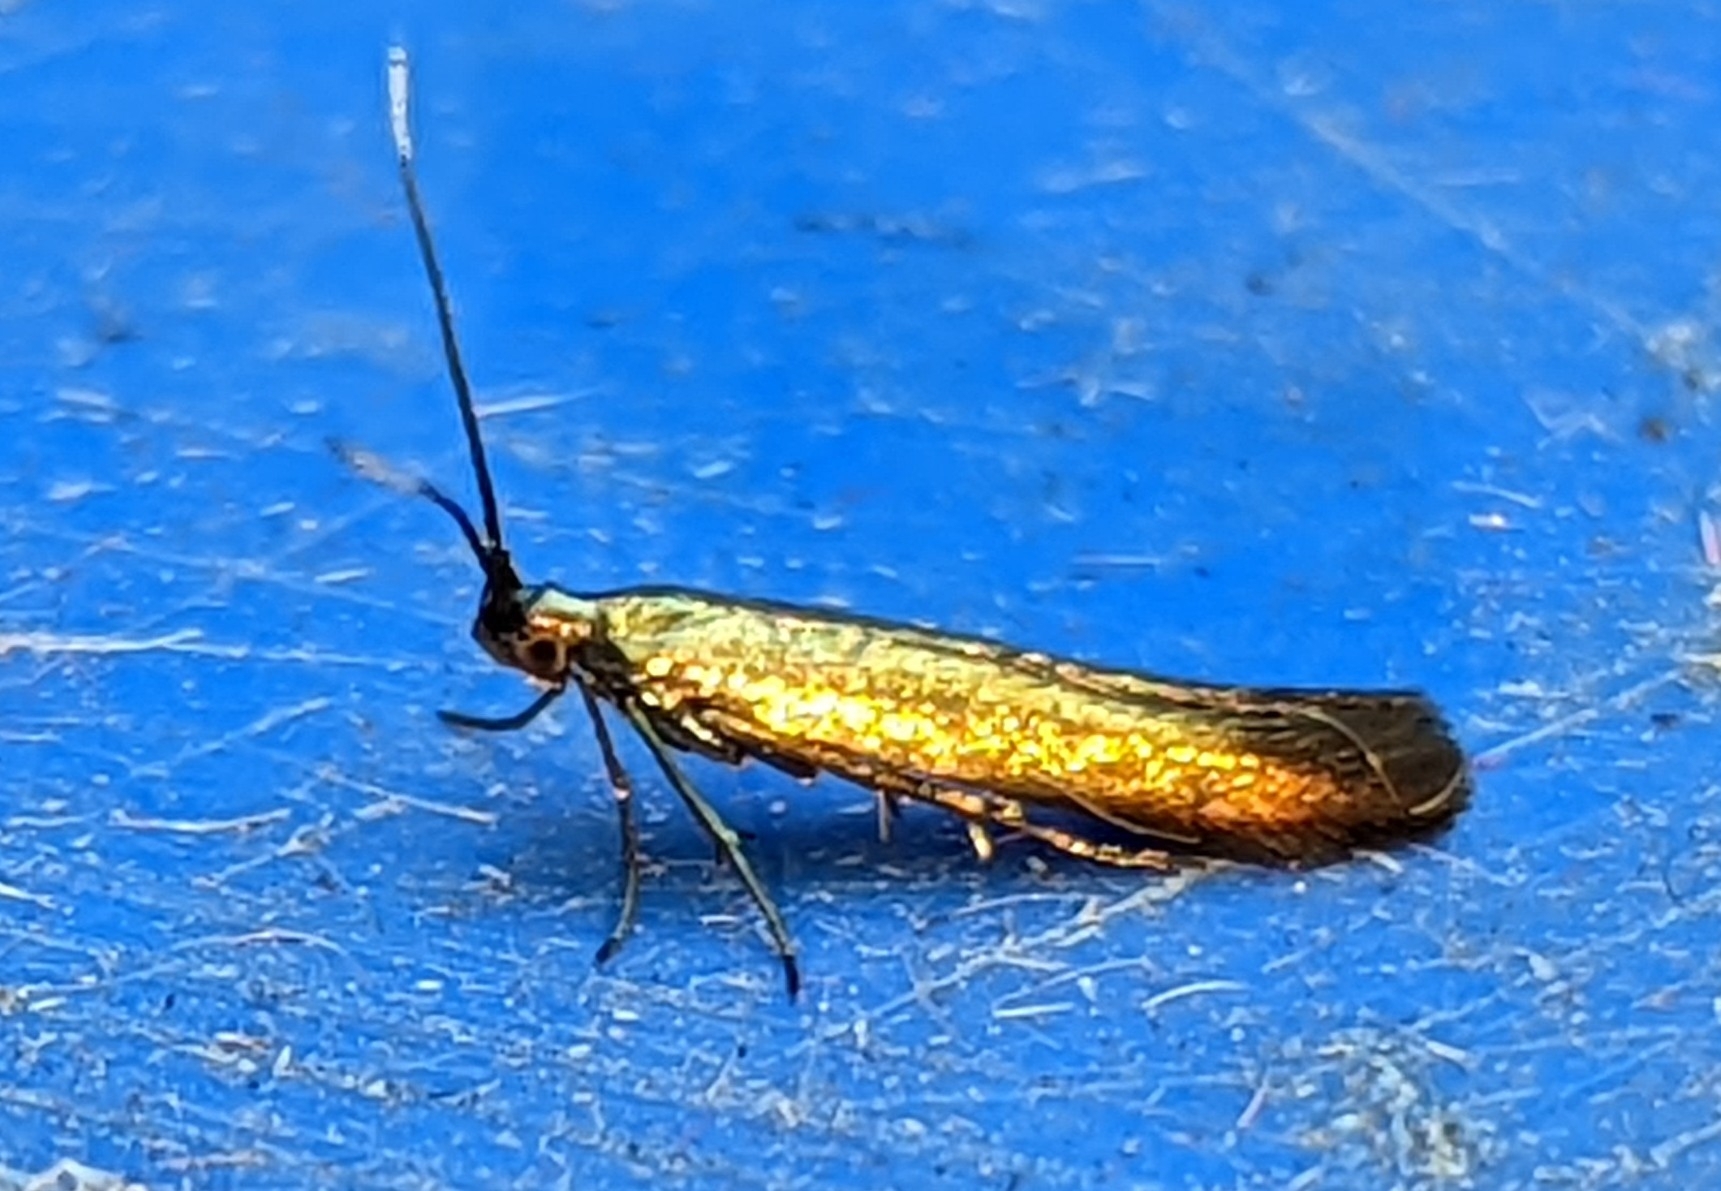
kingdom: Animalia
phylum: Arthropoda
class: Insecta
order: Lepidoptera
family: Coleophoridae
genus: Coleophora
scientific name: Coleophora trifolii
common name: Large clover case-bearer
